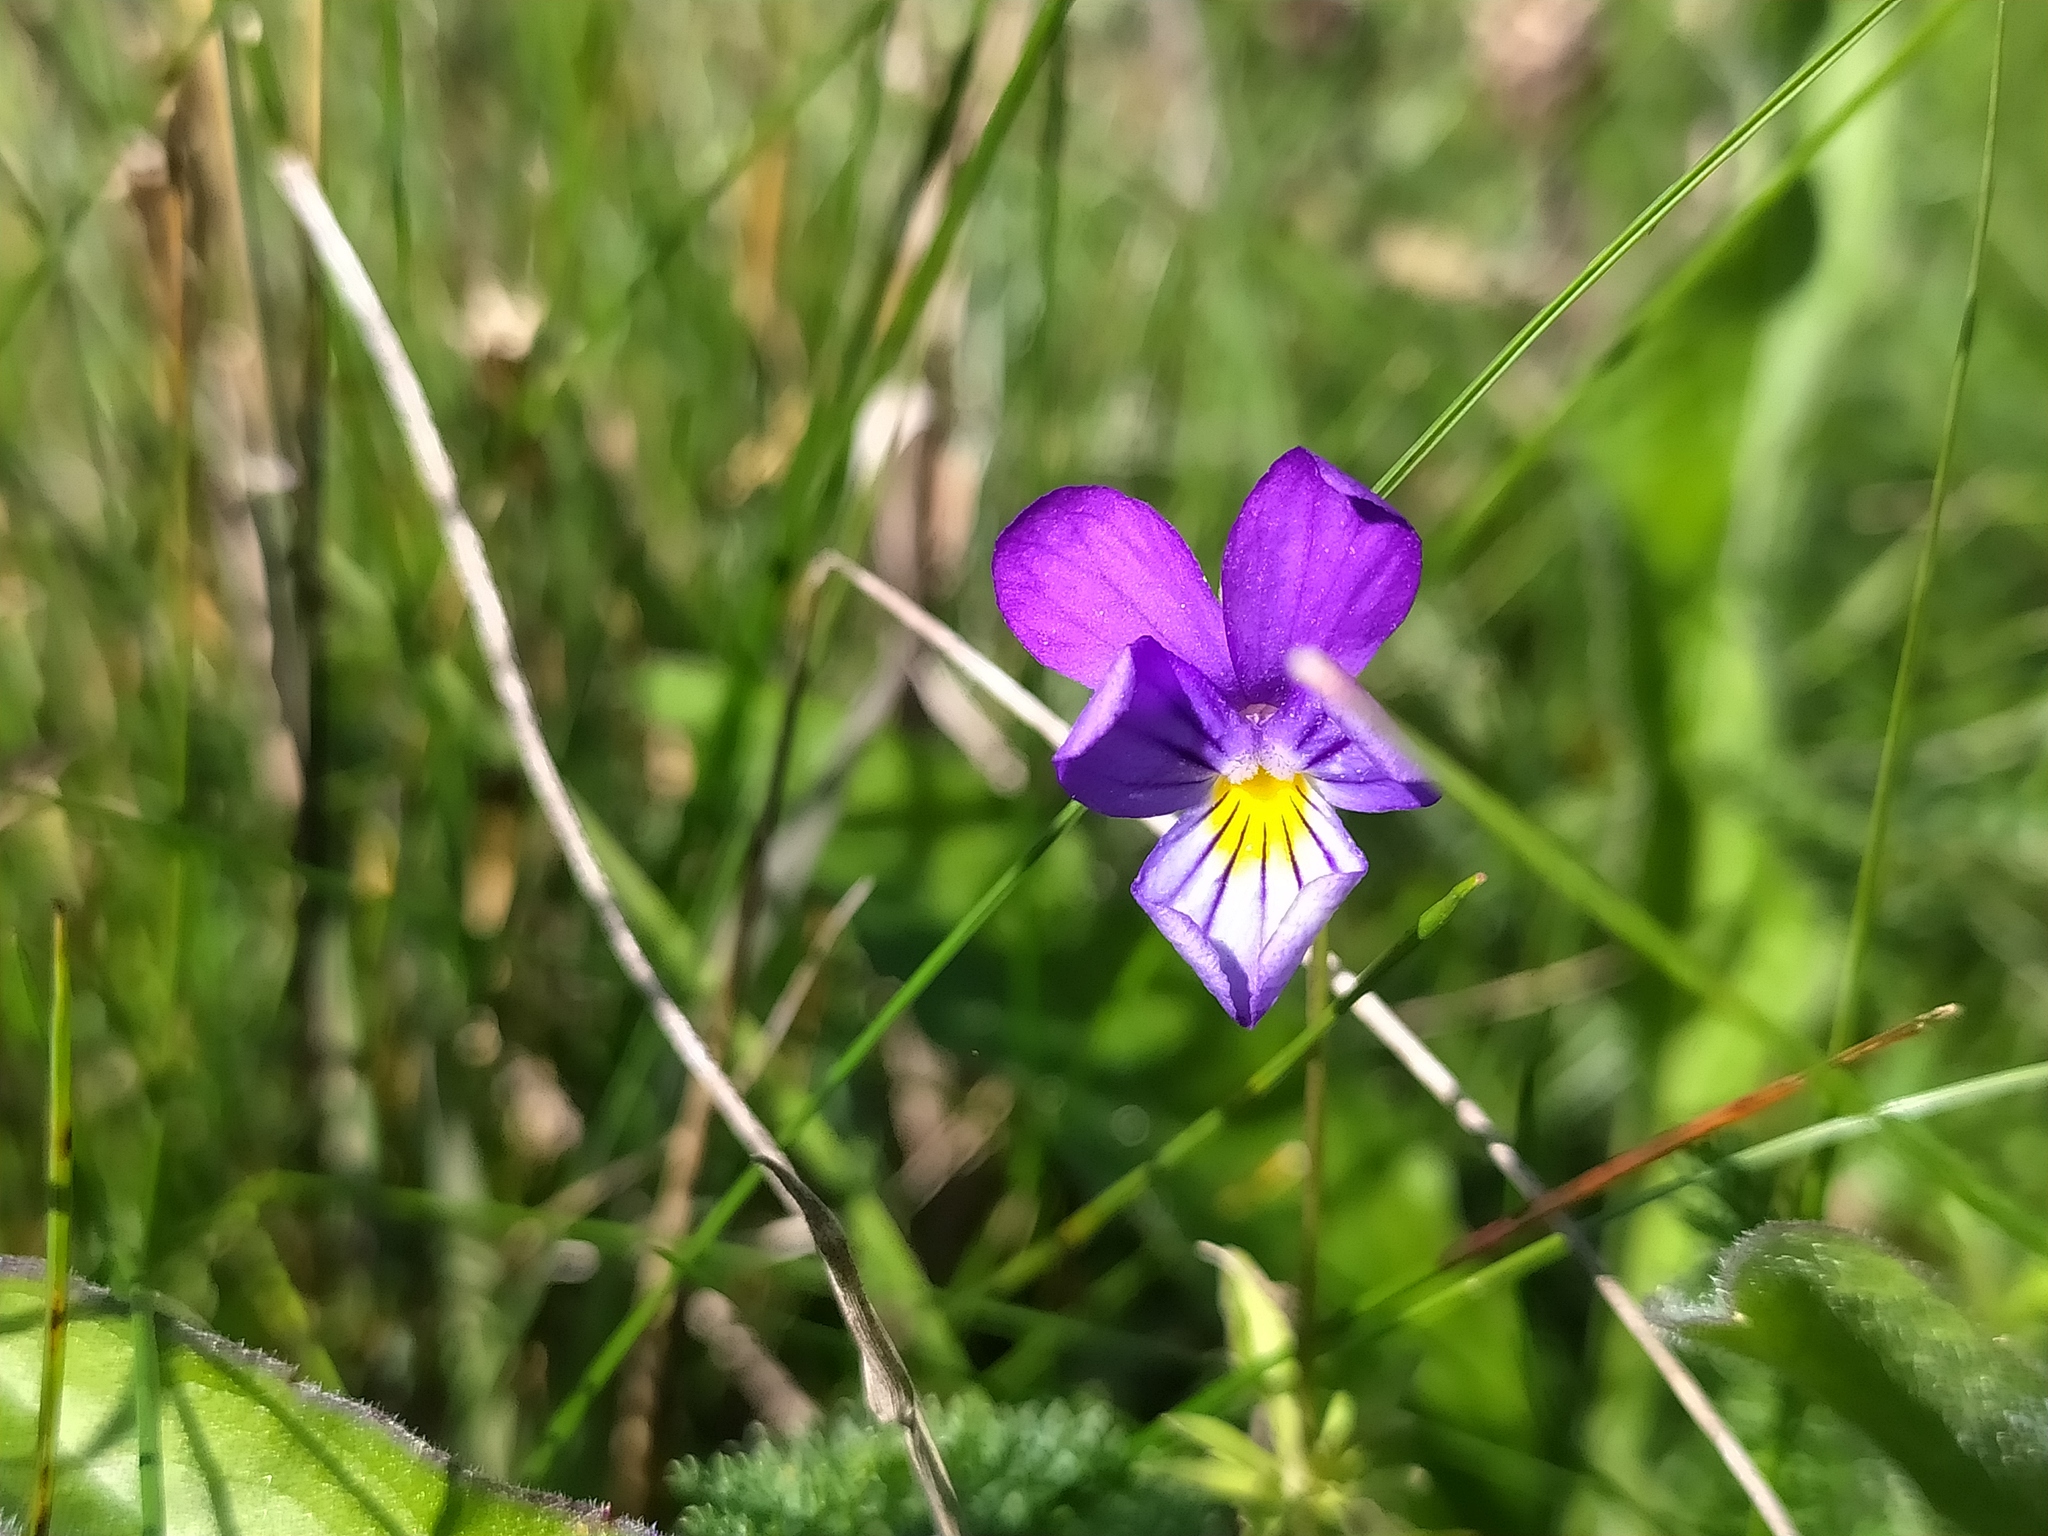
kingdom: Plantae
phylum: Tracheophyta
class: Magnoliopsida
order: Malpighiales
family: Violaceae
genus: Viola
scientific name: Viola tricolor
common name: Pansy
